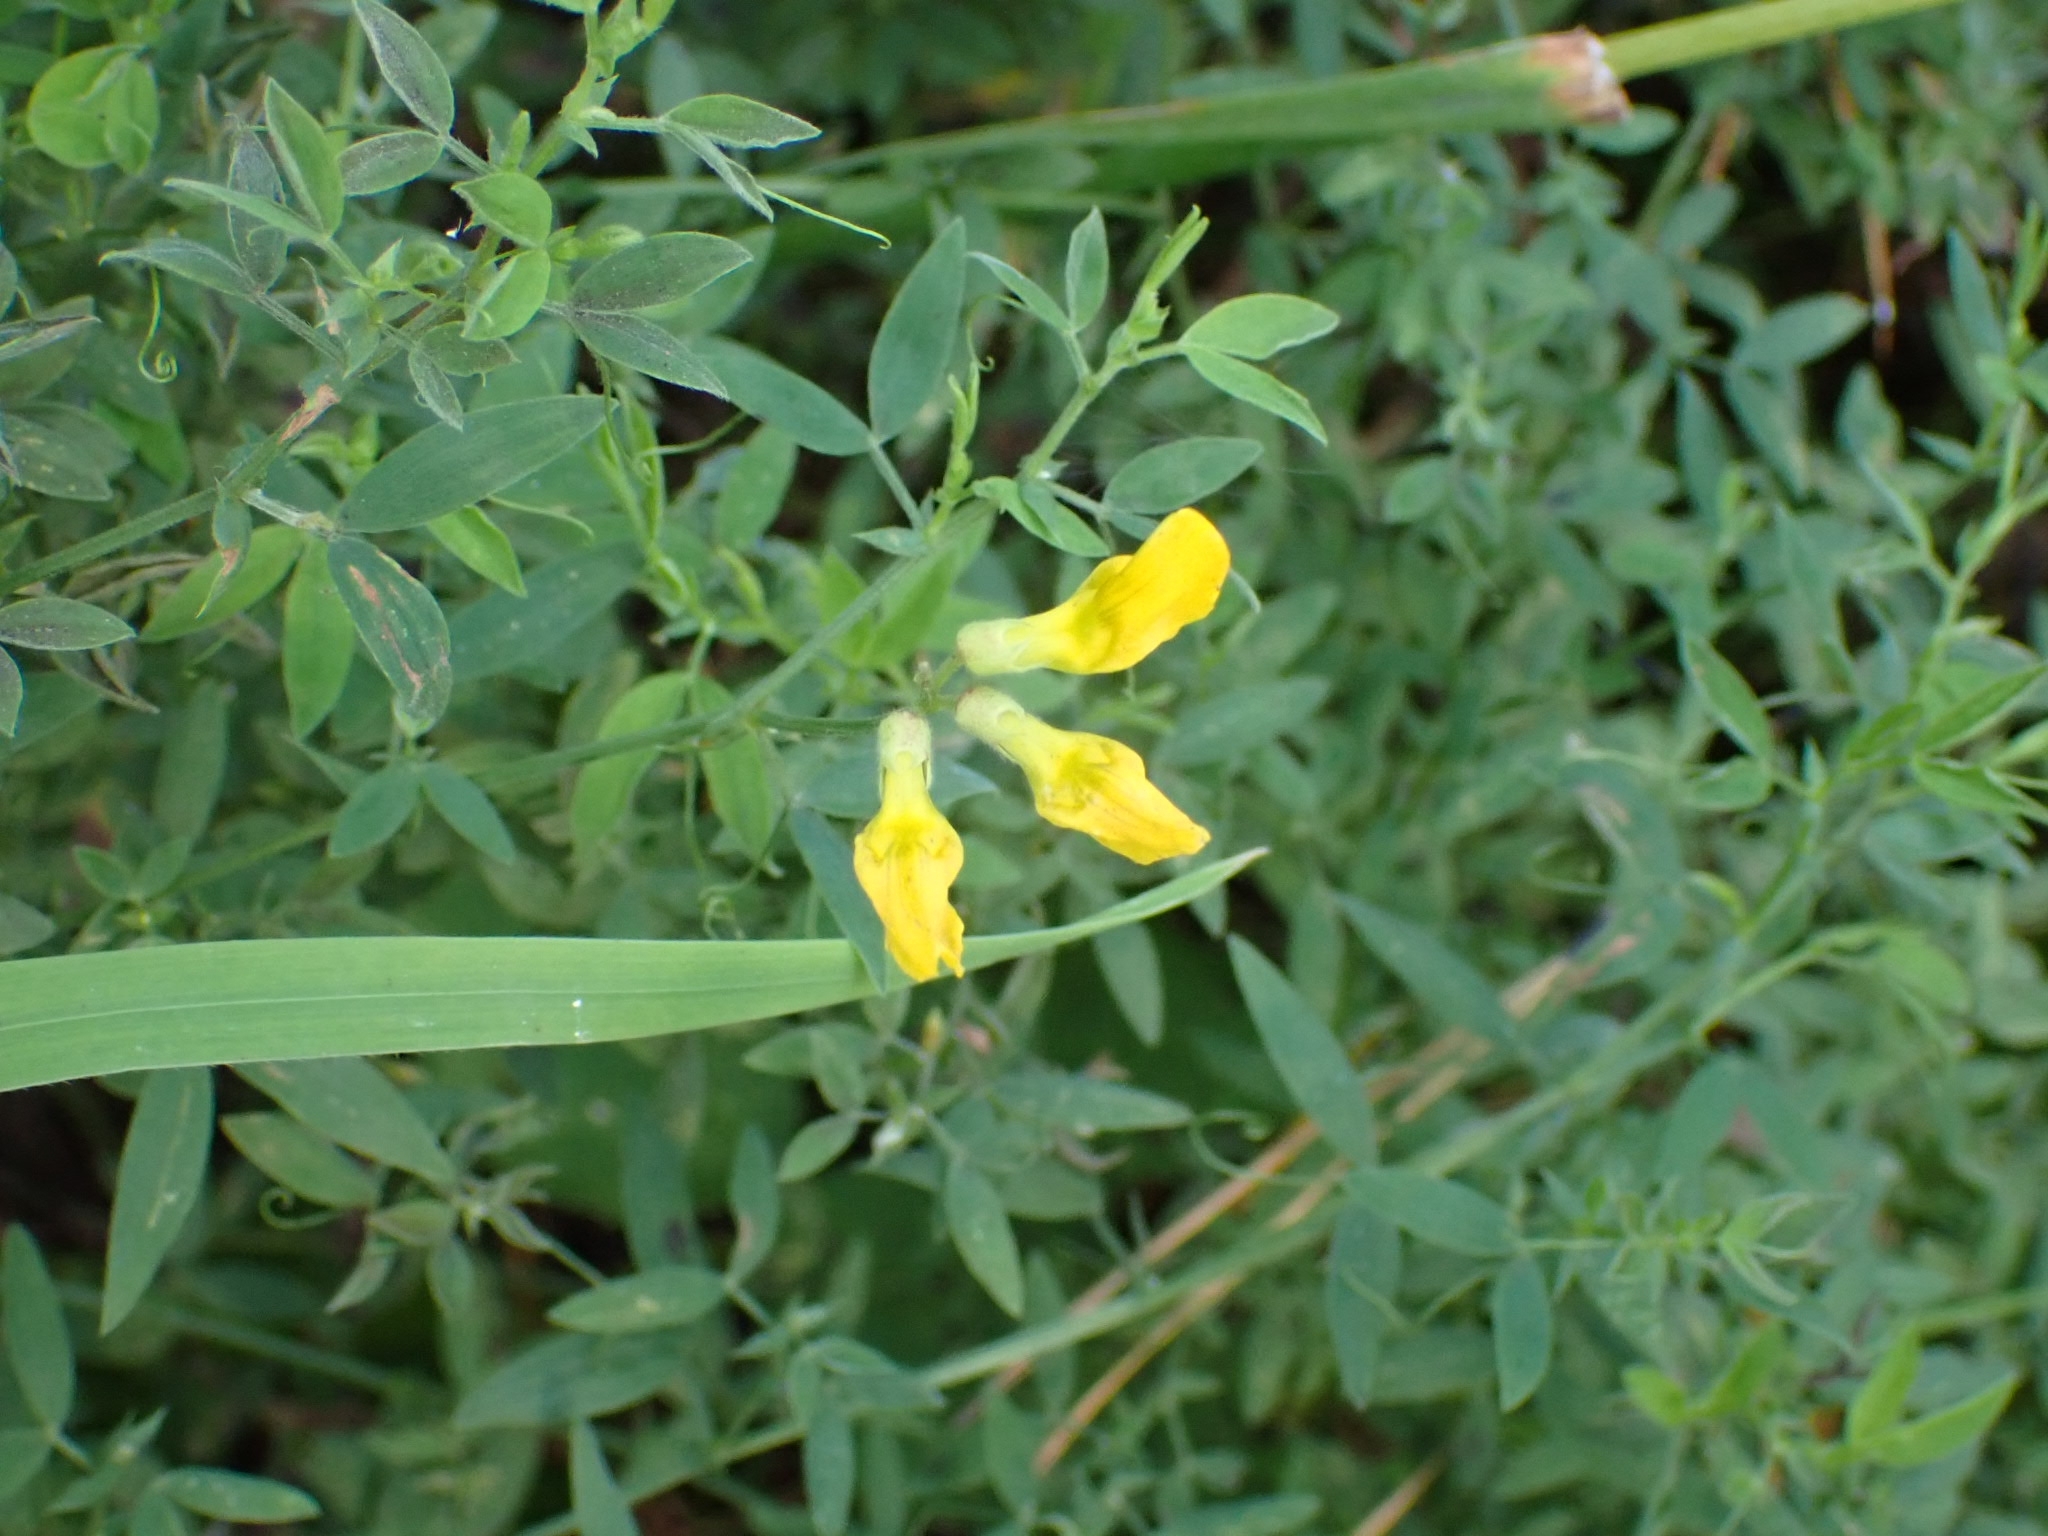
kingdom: Plantae
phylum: Tracheophyta
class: Magnoliopsida
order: Fabales
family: Fabaceae
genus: Lathyrus
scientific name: Lathyrus pratensis
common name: Meadow vetchling
